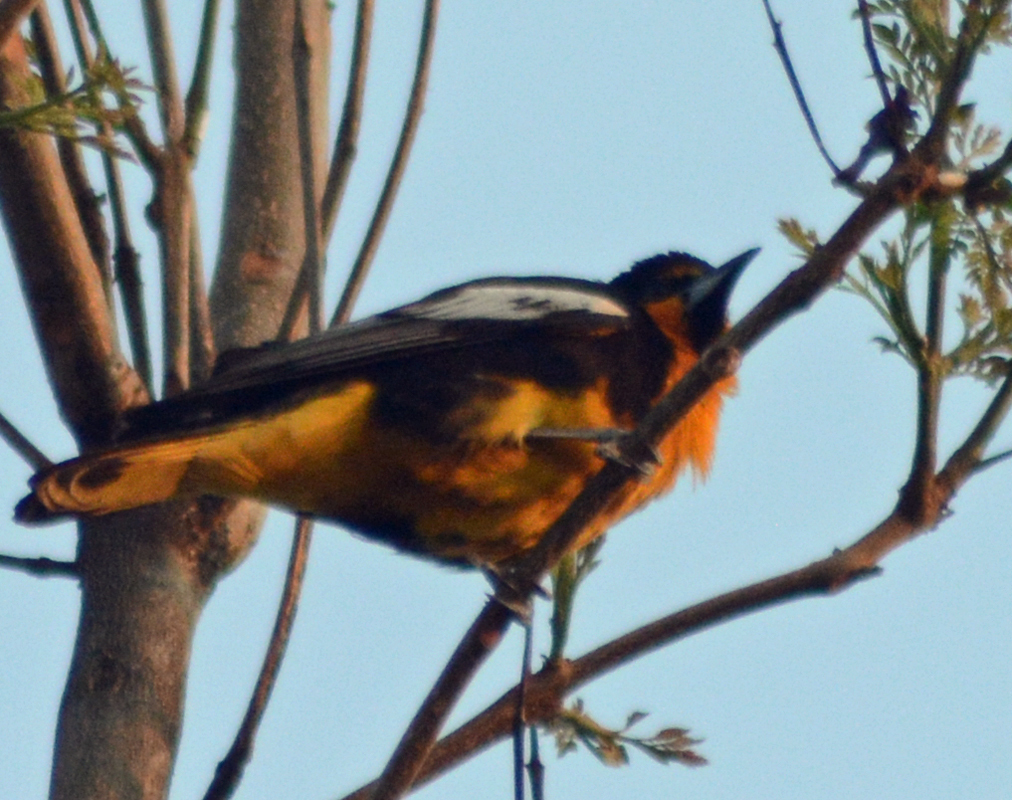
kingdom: Animalia
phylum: Chordata
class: Aves
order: Passeriformes
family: Icteridae
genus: Icterus
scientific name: Icterus abeillei
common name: Black-backed oriole
